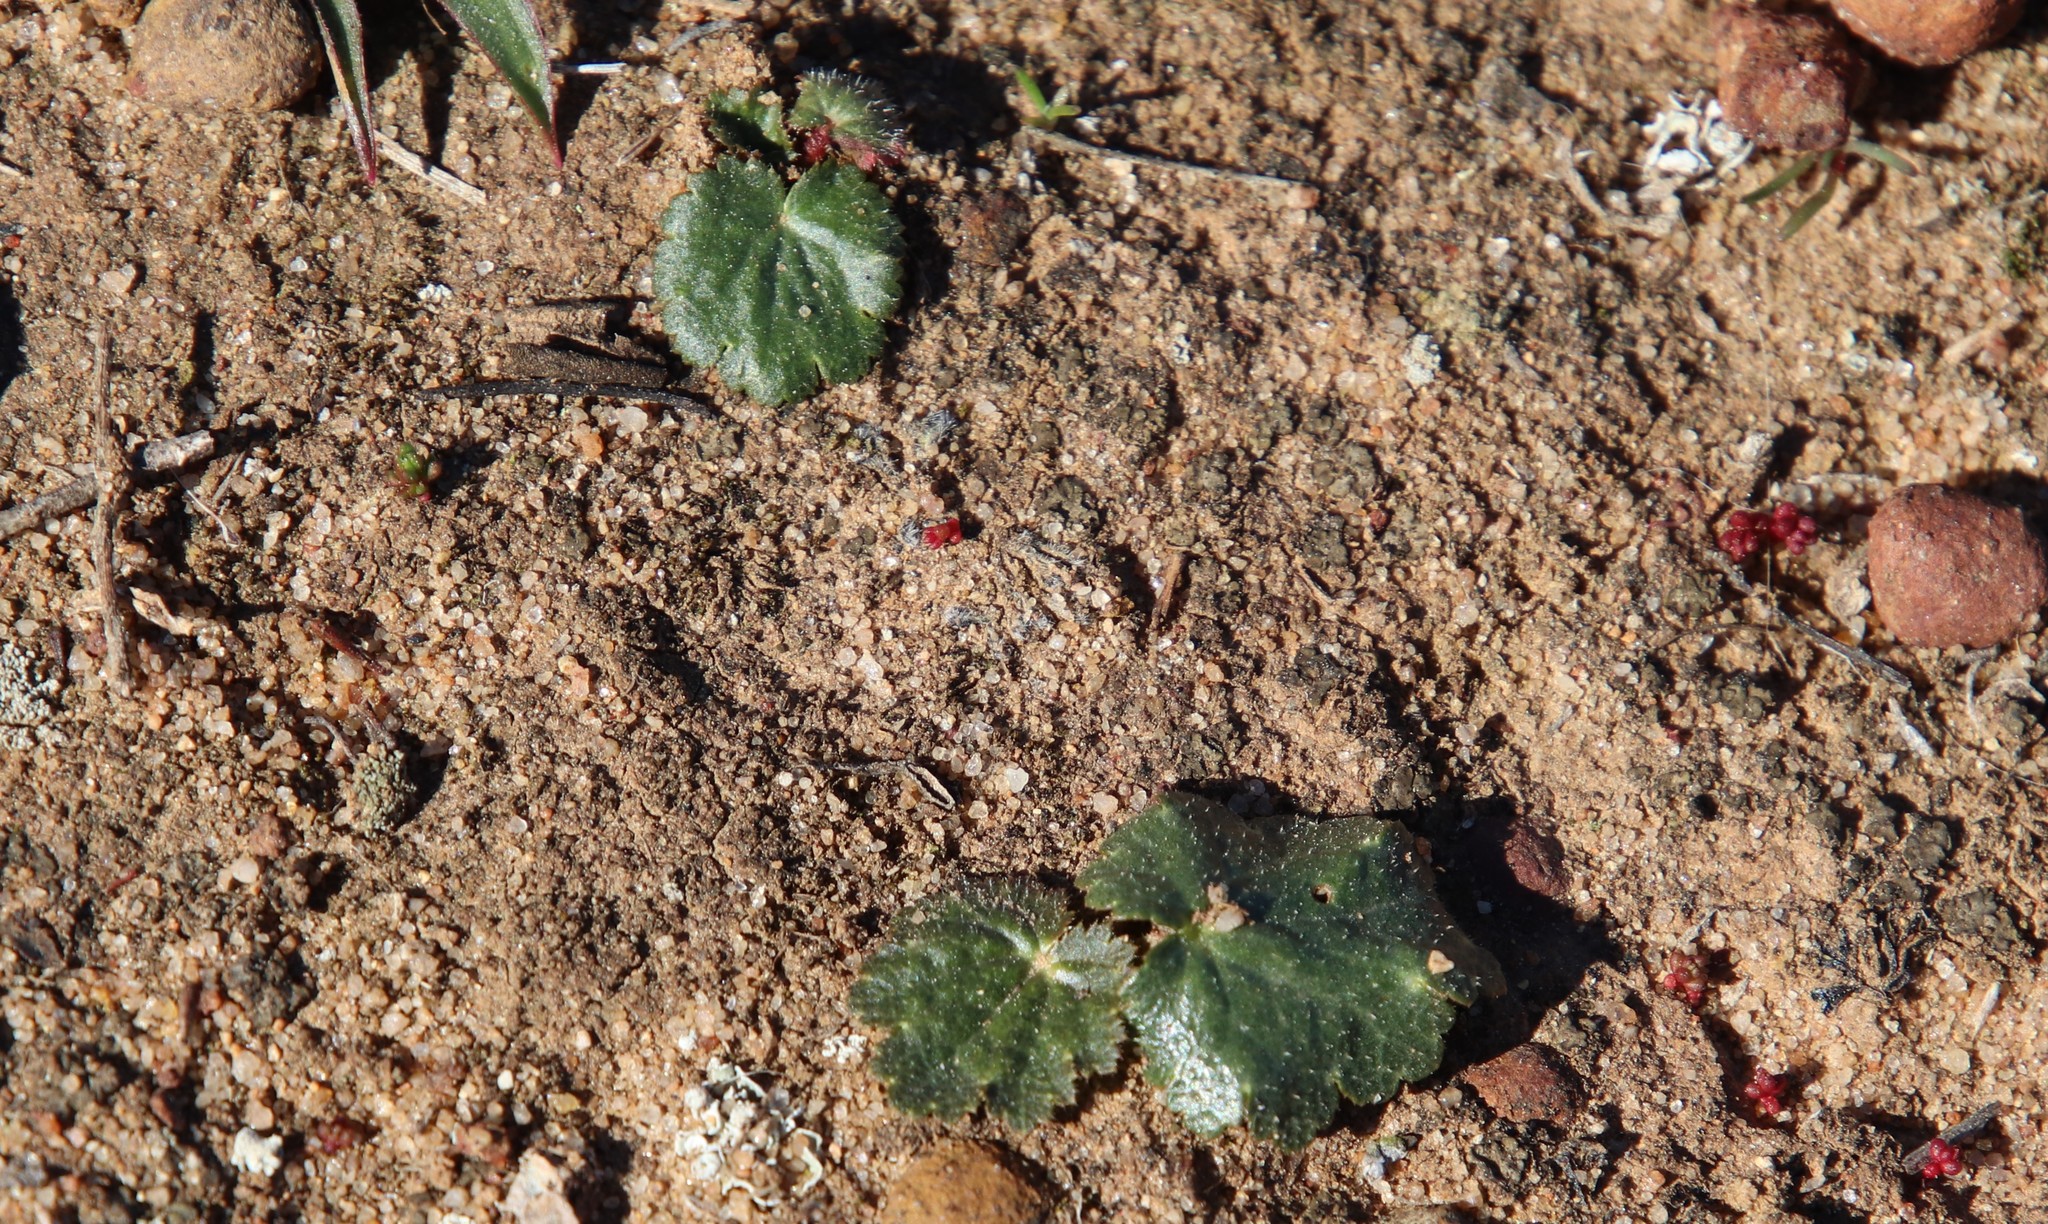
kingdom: Plantae
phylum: Tracheophyta
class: Magnoliopsida
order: Saxifragales
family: Saxifragaceae
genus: Jepsonia
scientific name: Jepsonia parryi
